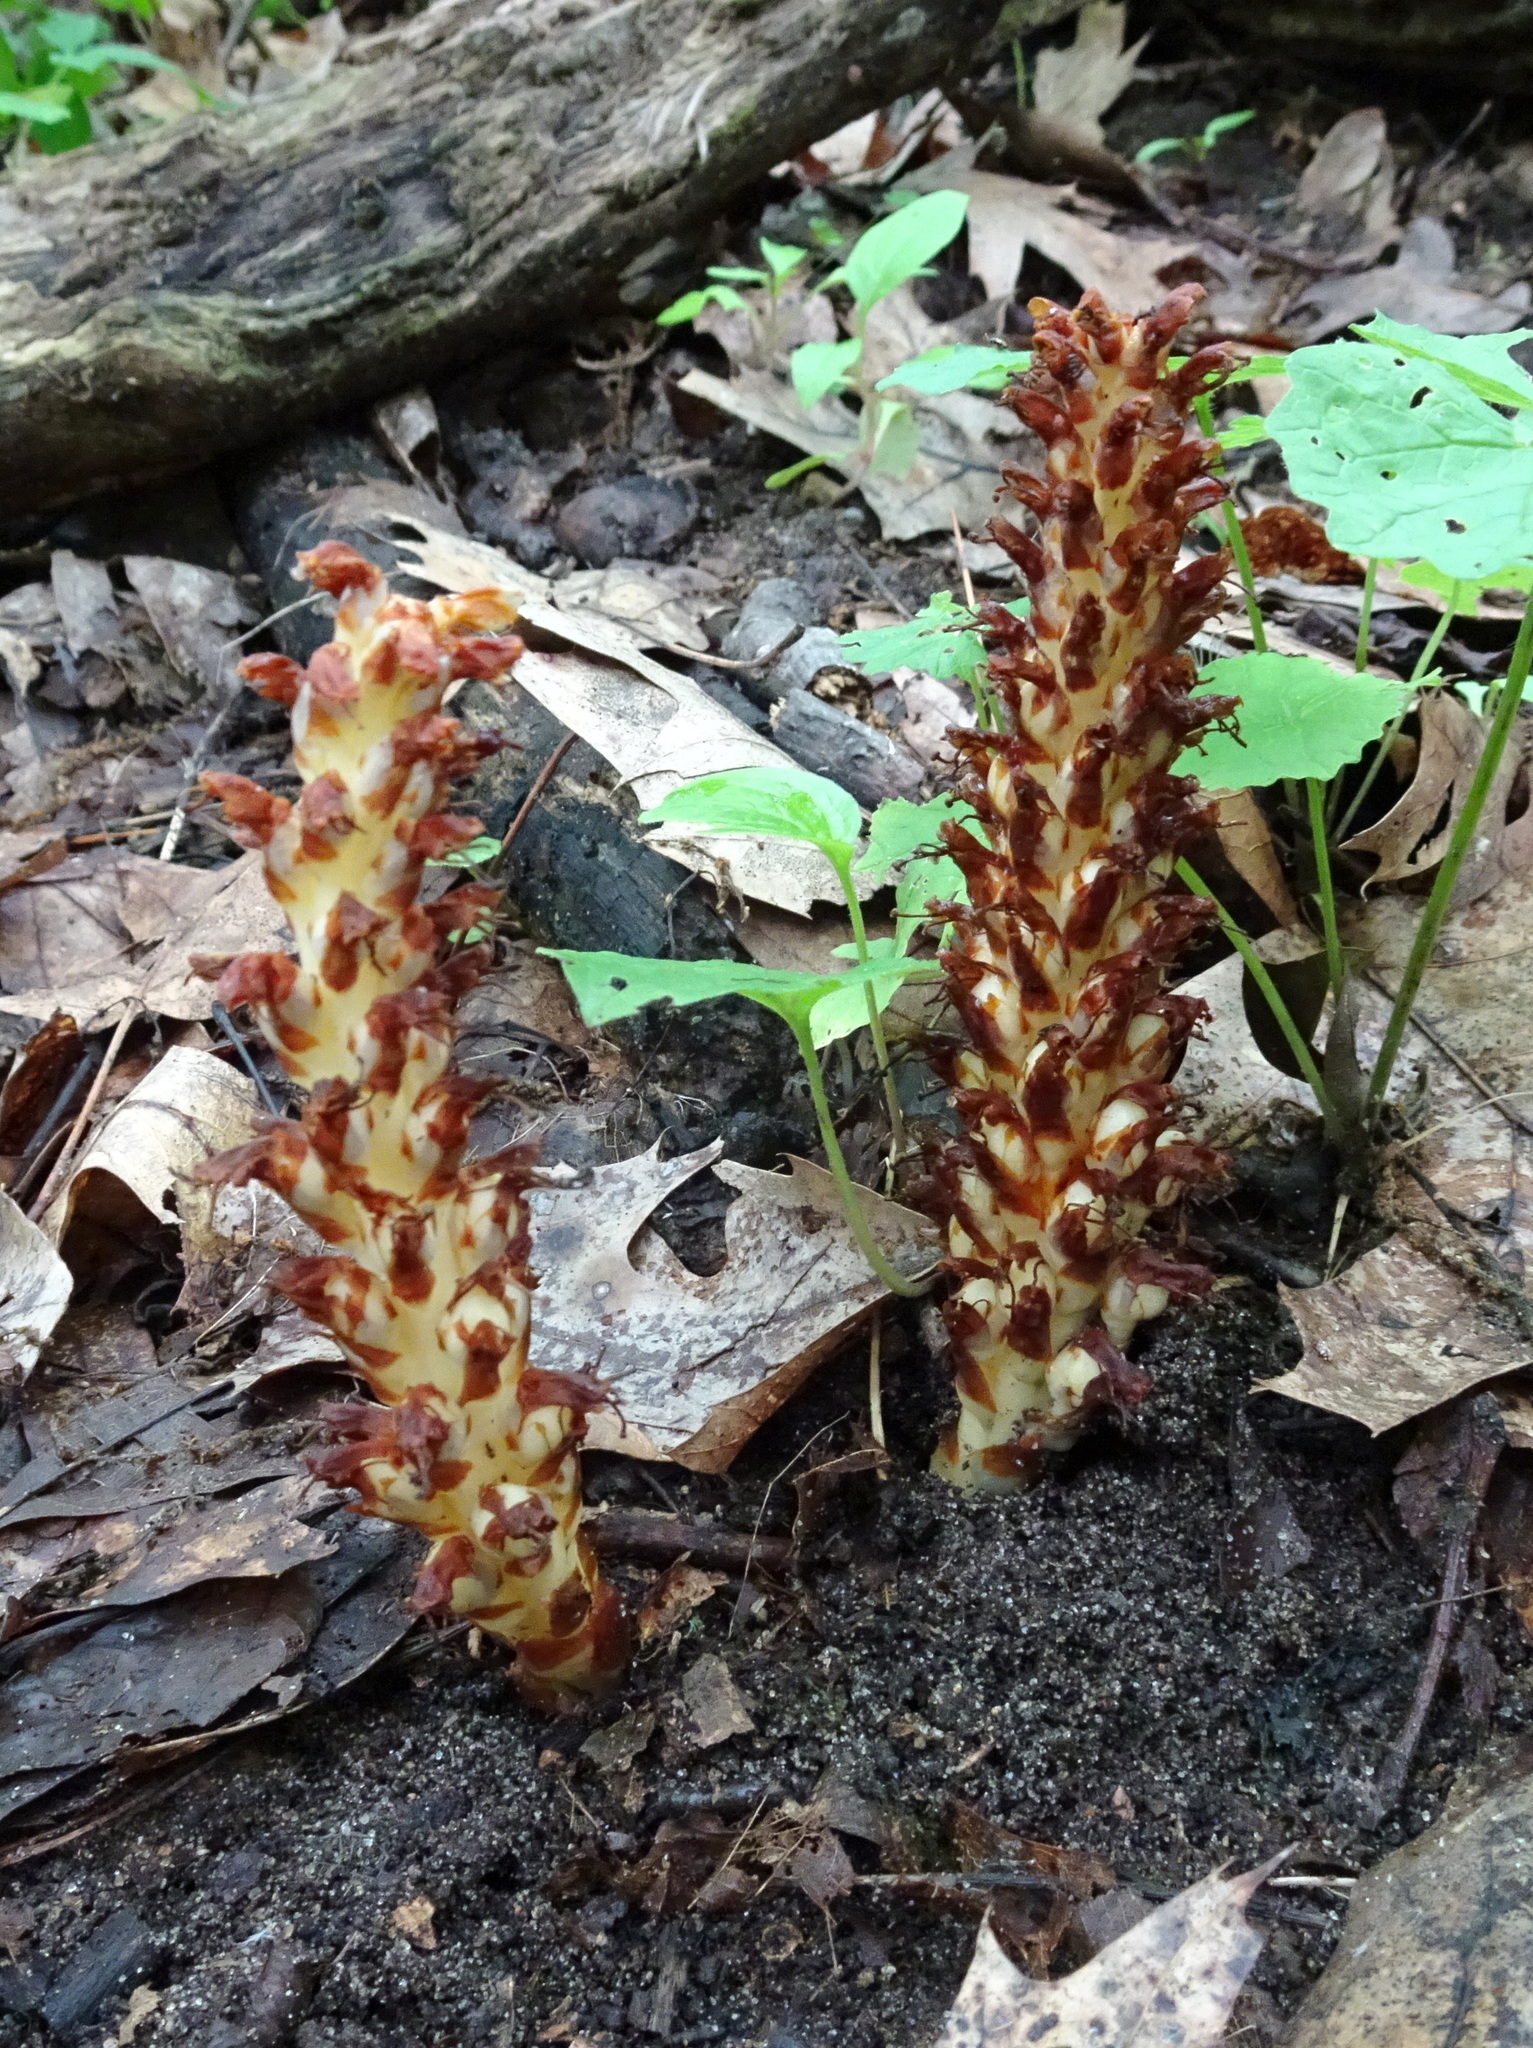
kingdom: Plantae
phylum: Tracheophyta
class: Magnoliopsida
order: Lamiales
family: Orobanchaceae
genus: Conopholis
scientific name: Conopholis americana
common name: American cancer-root
